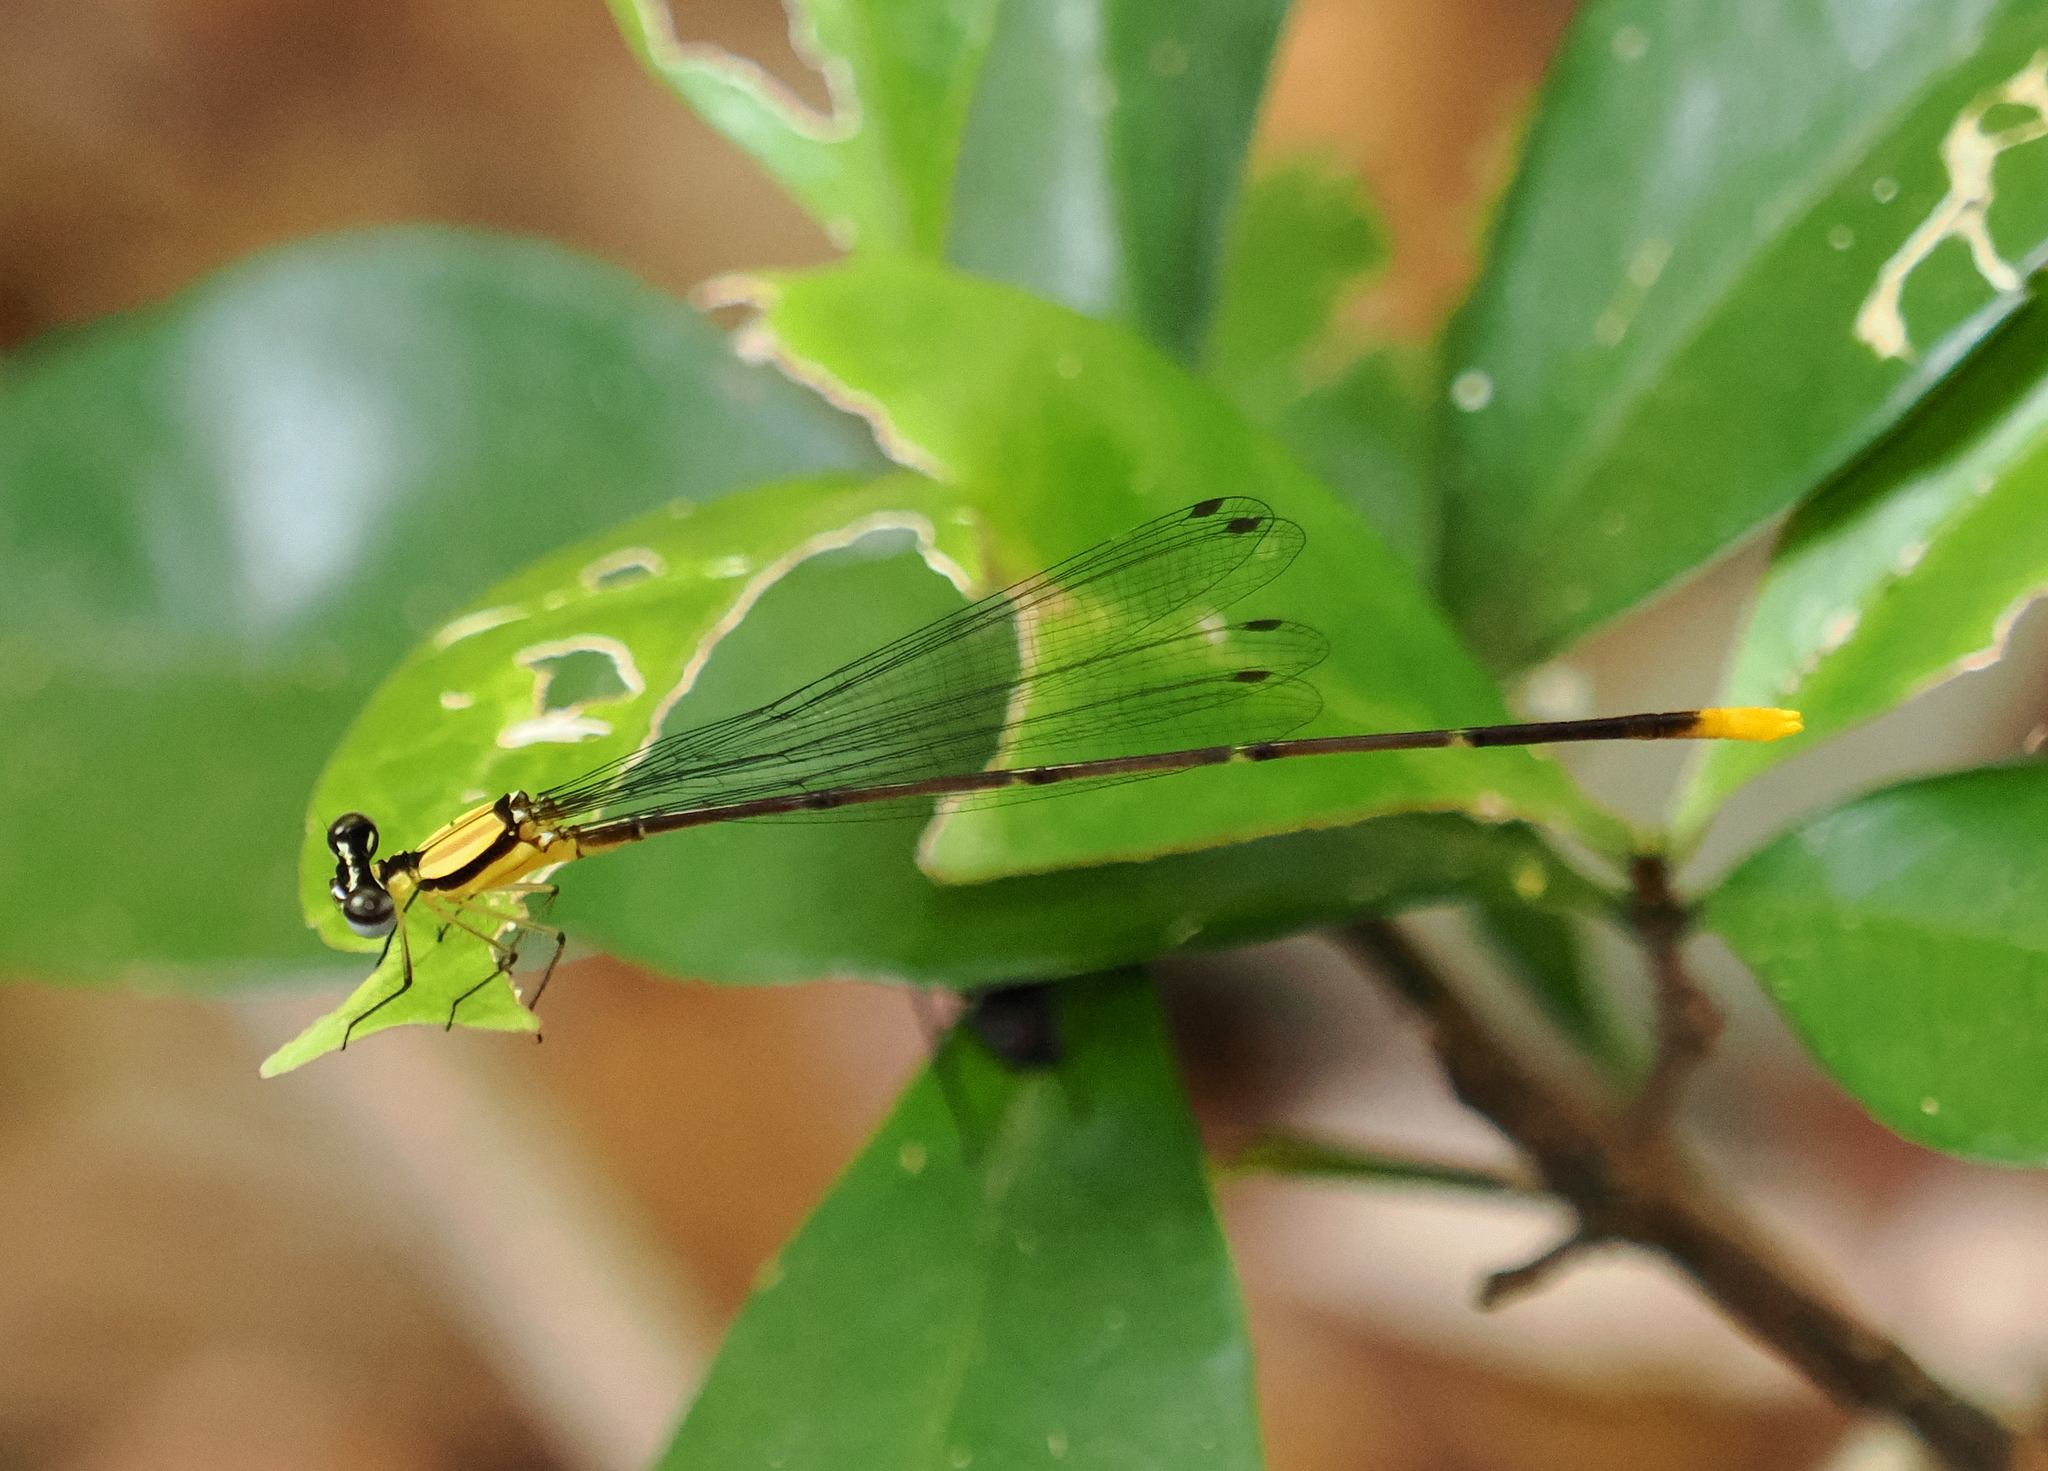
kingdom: Animalia
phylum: Arthropoda
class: Insecta
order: Odonata
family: Platycnemididae
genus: Coeliccia
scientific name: Coeliccia poungyi
